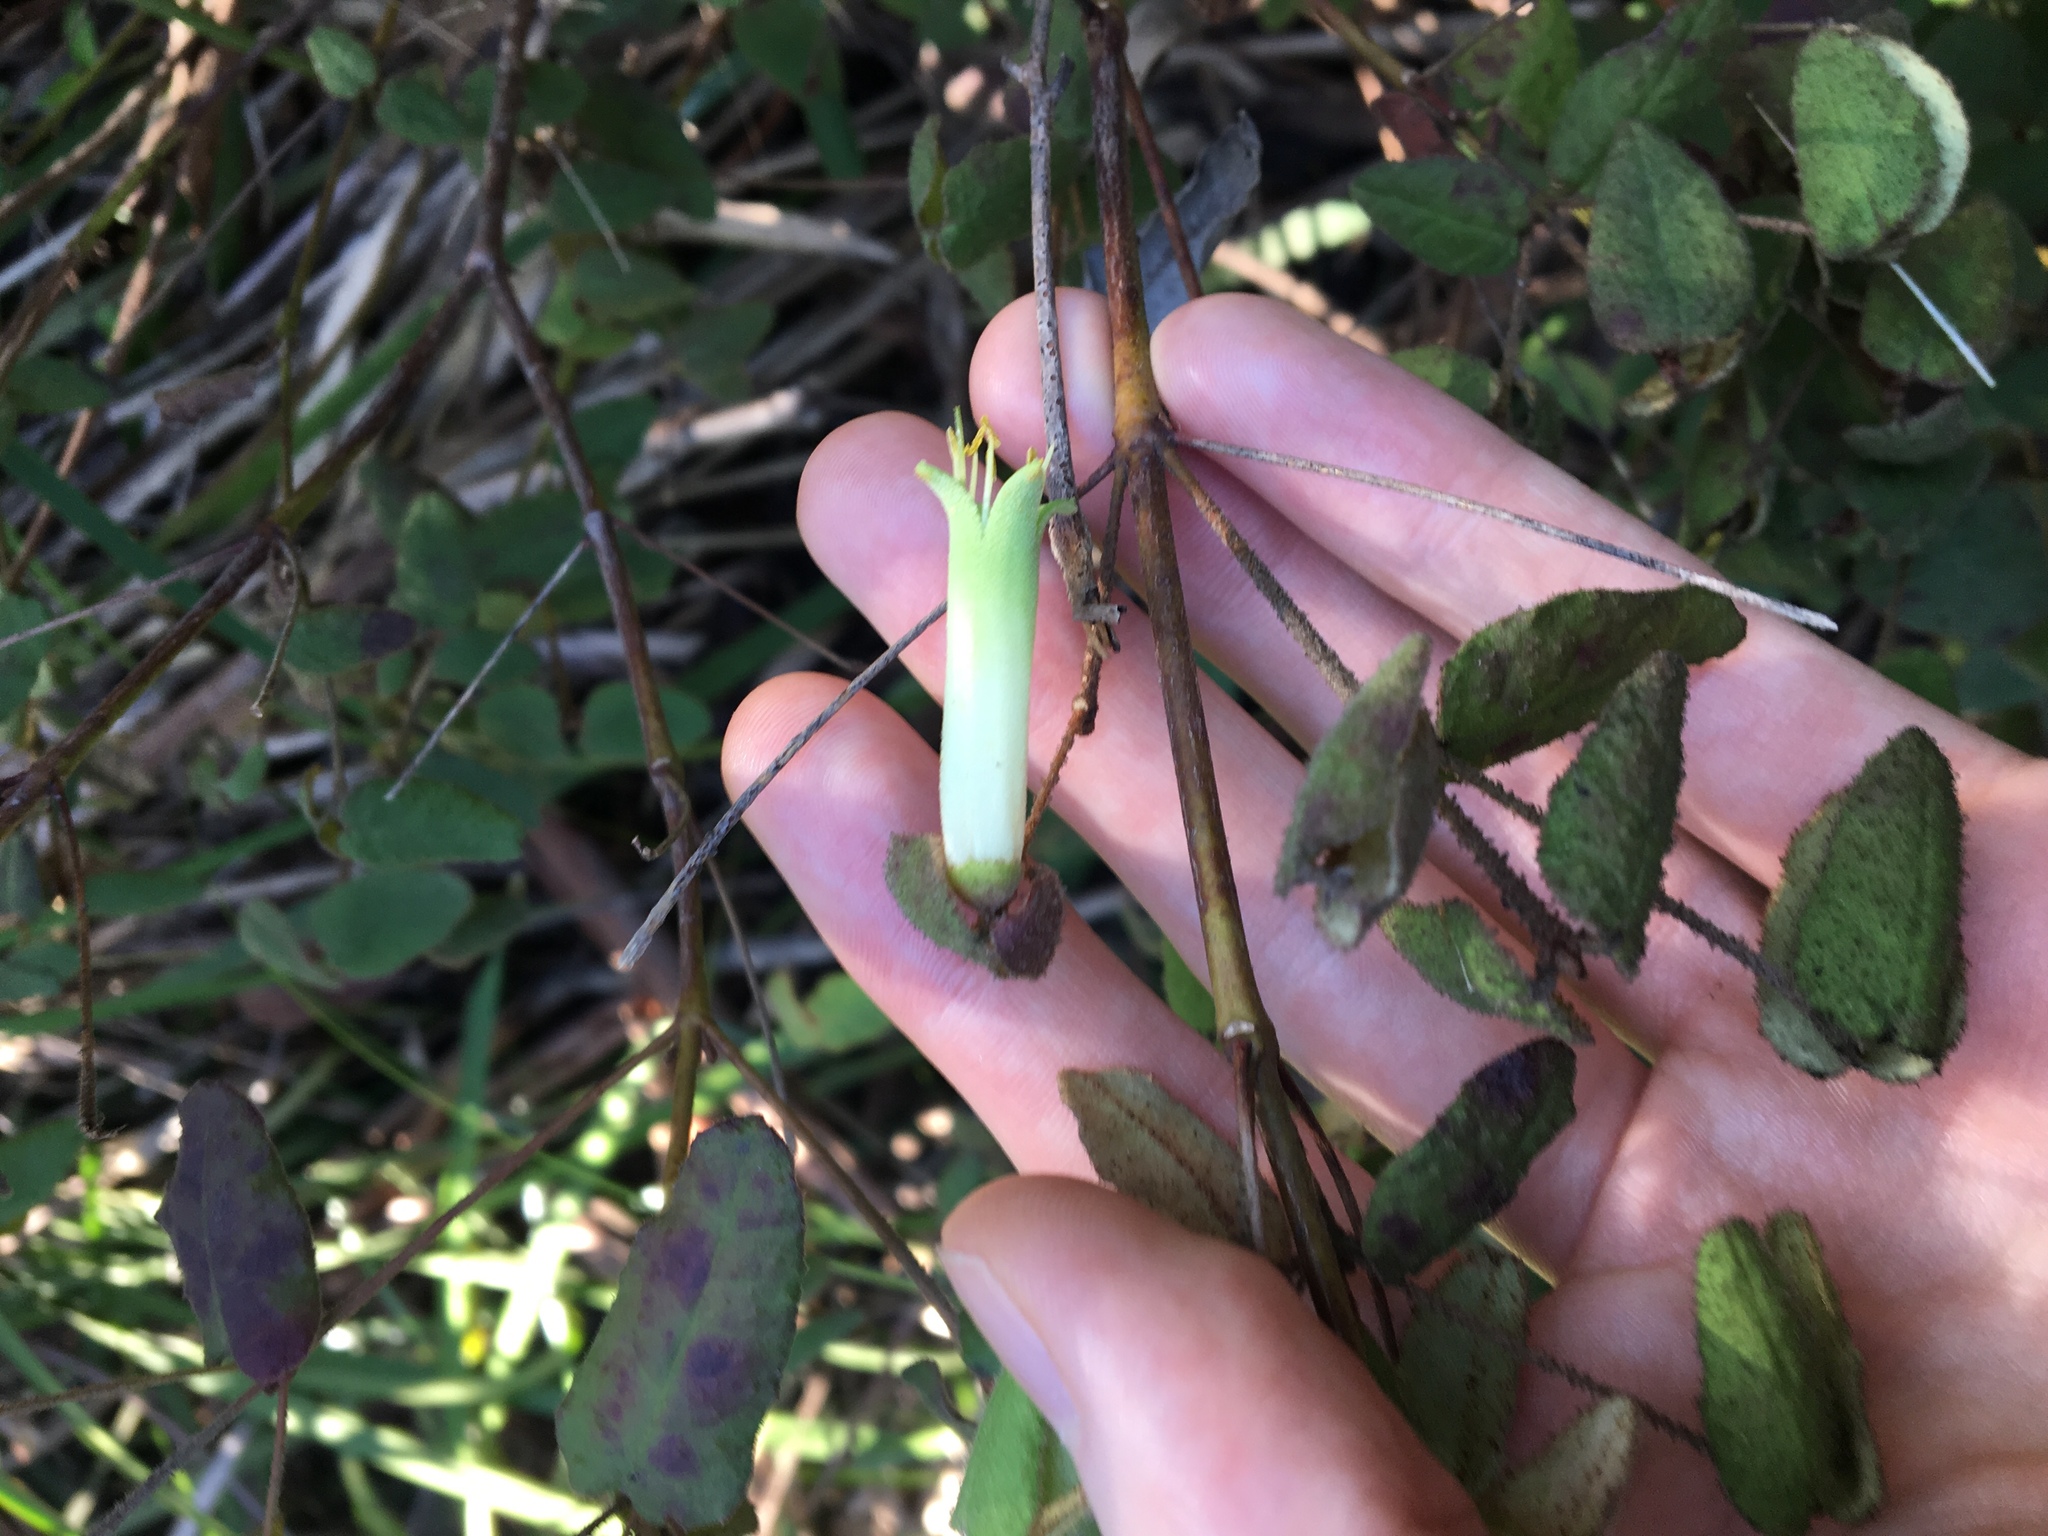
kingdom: Plantae
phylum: Tracheophyta
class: Magnoliopsida
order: Sapindales
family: Rutaceae
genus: Correa
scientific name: Correa reflexa
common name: Common correa
